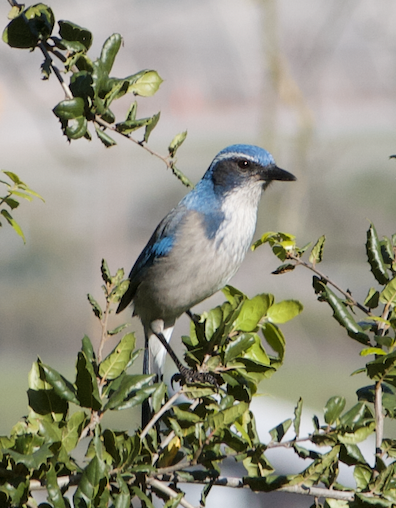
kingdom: Animalia
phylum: Chordata
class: Aves
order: Passeriformes
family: Corvidae
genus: Aphelocoma
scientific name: Aphelocoma californica
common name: California scrub-jay
